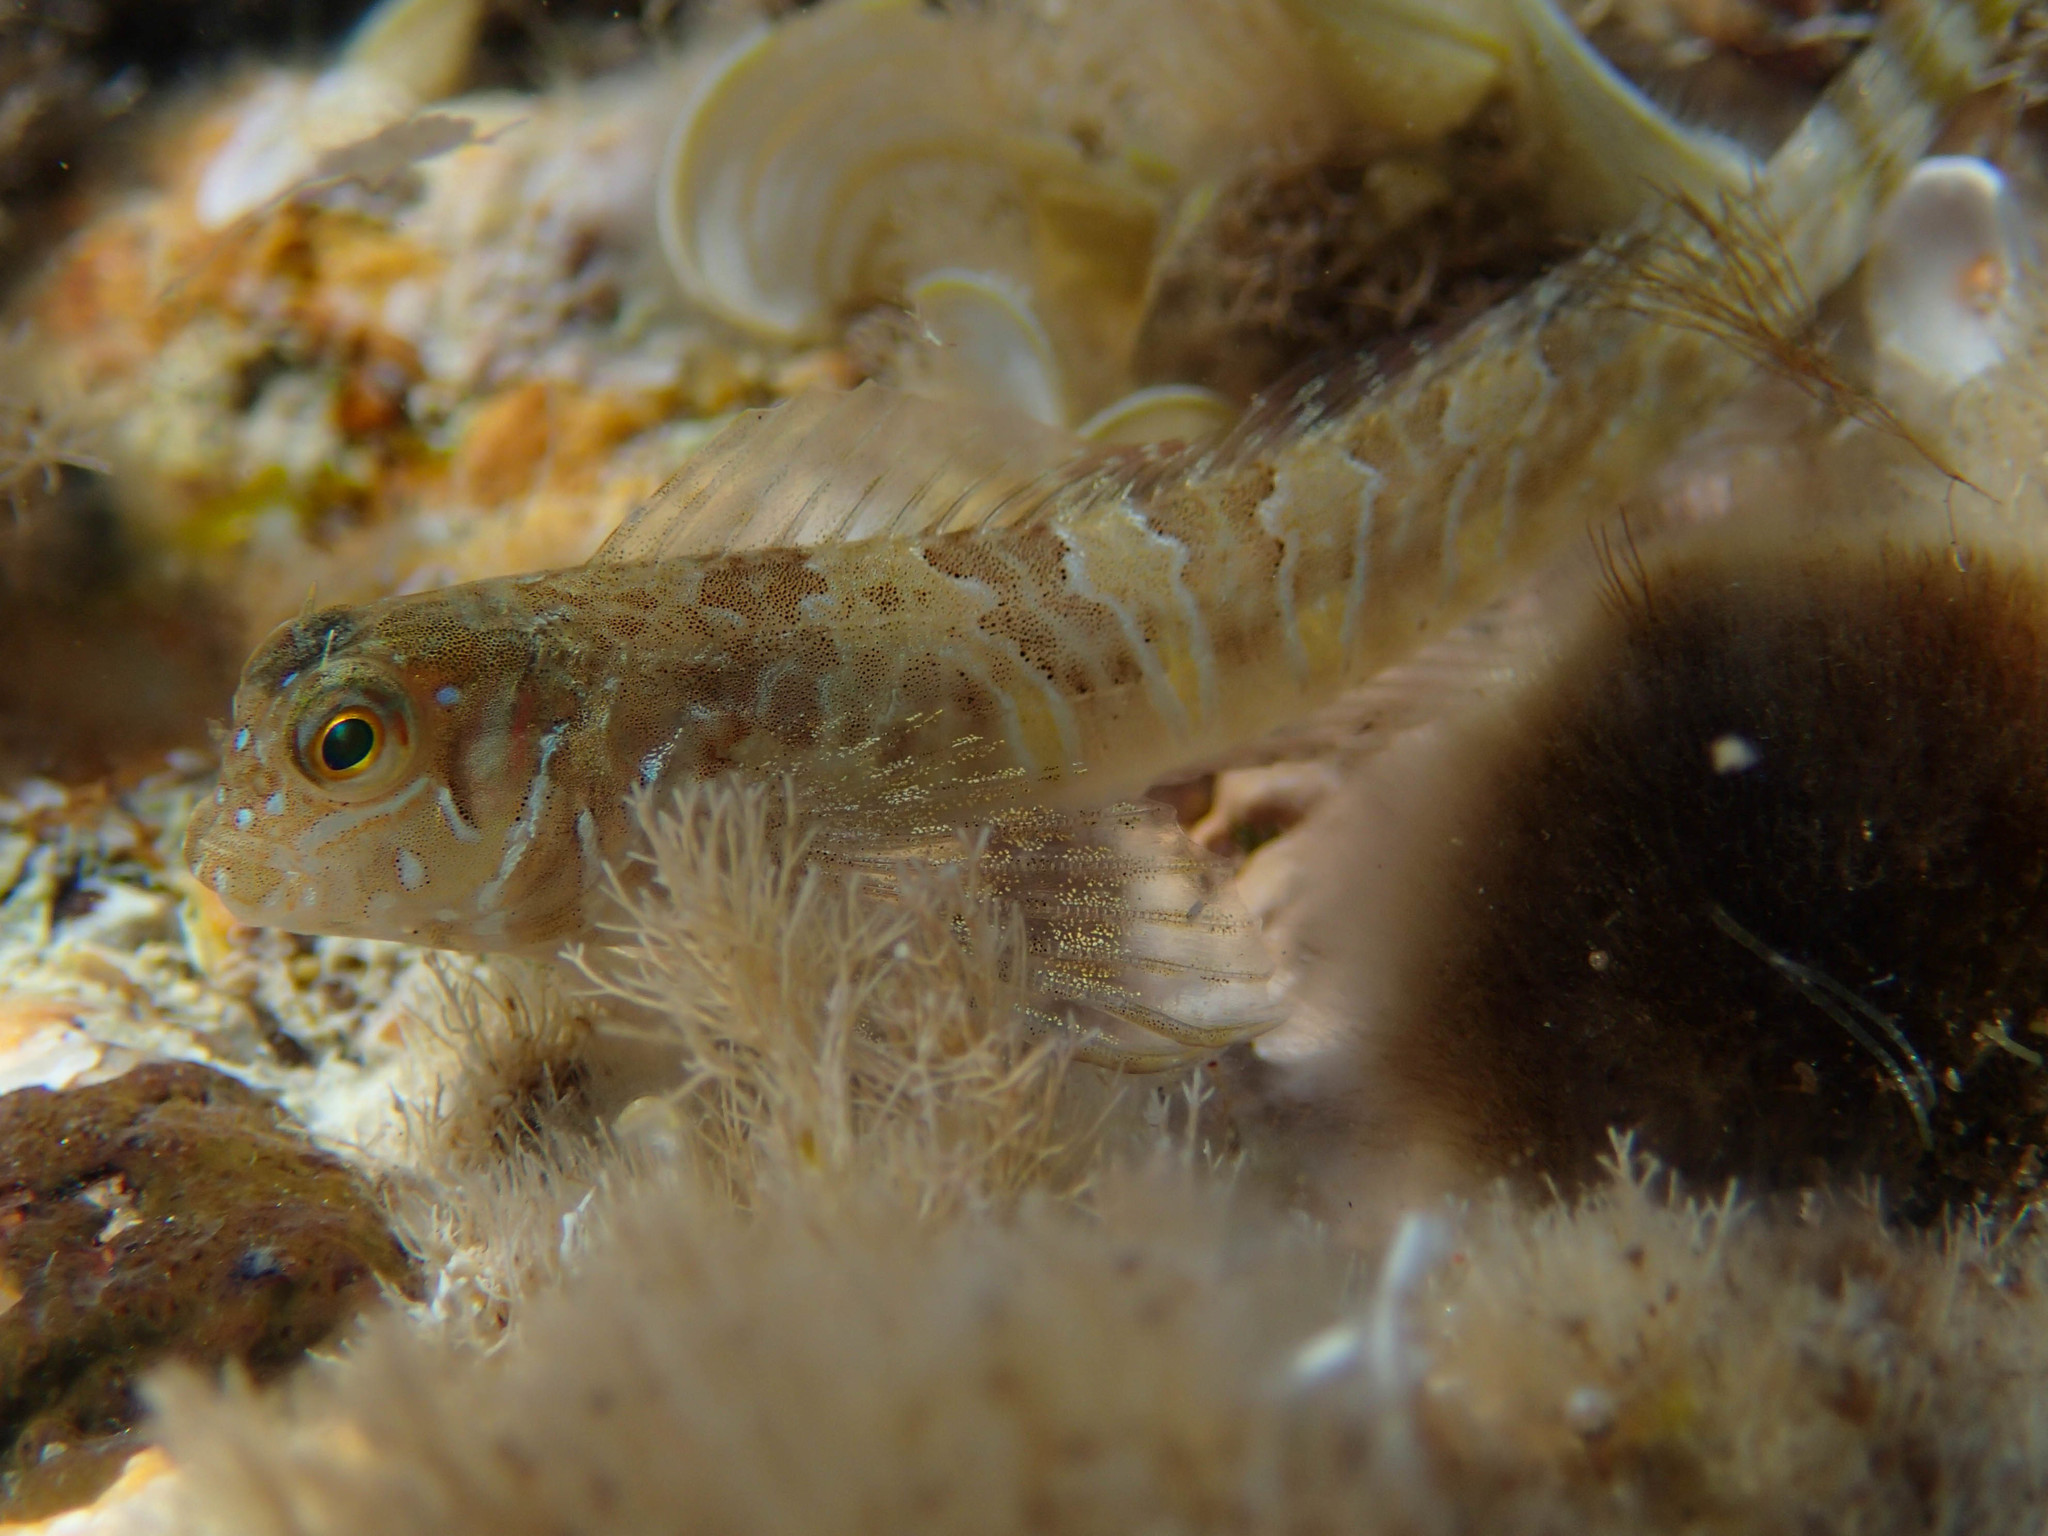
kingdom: Animalia
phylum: Chordata
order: Perciformes
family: Blenniidae
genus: Aidablennius
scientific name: Aidablennius sphynx
